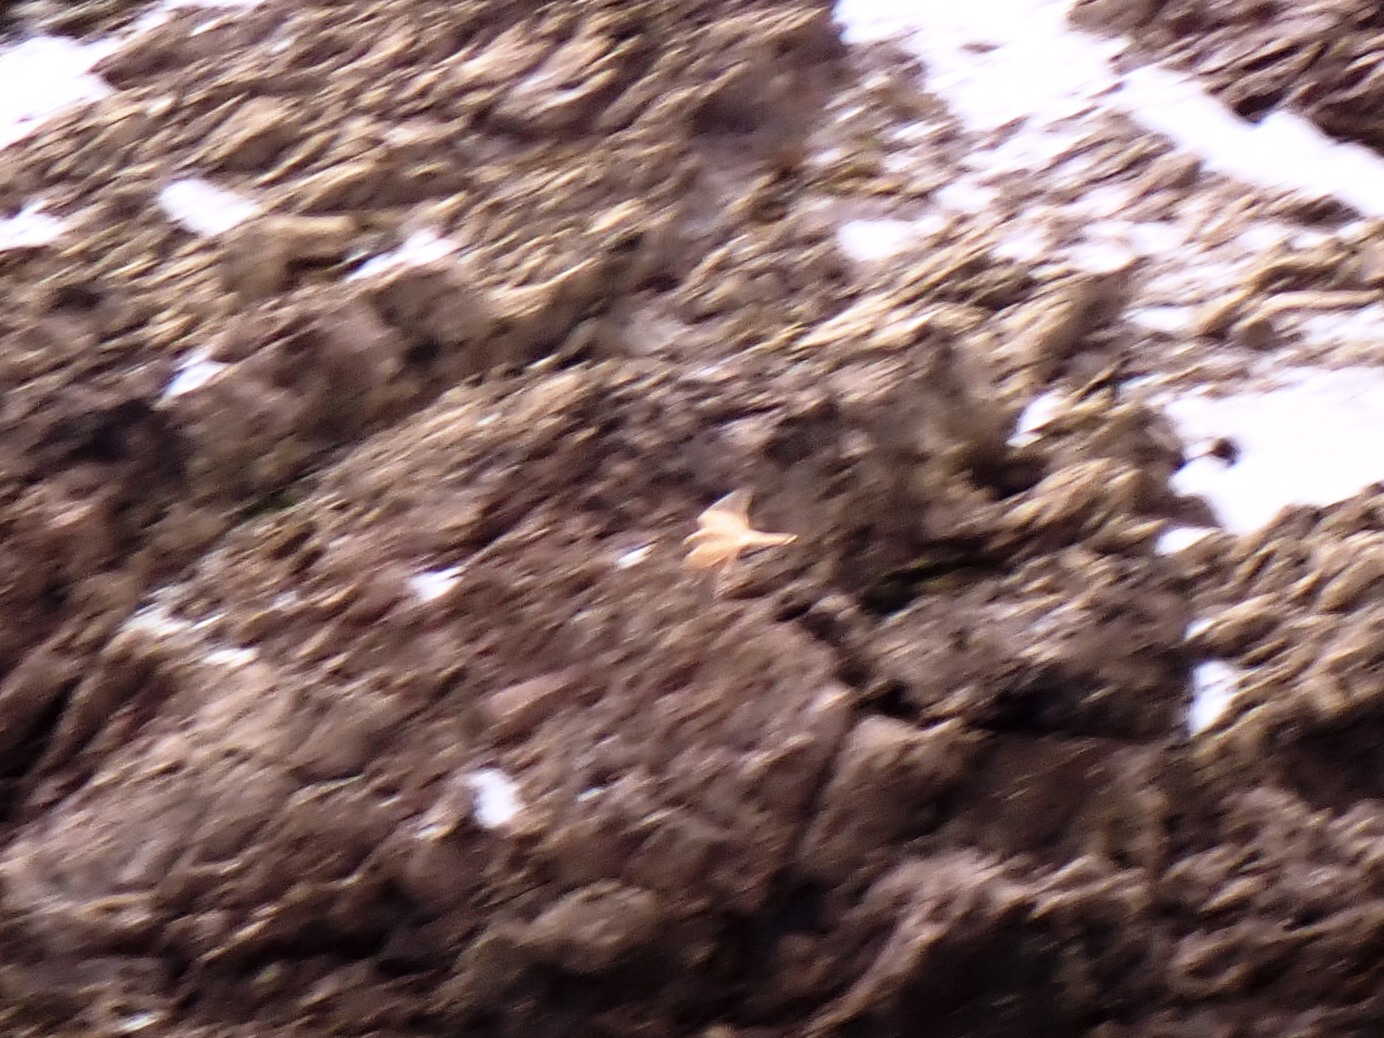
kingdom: Animalia
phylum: Chordata
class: Aves
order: Falconiformes
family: Falconidae
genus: Falco
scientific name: Falco tinnunculus
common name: Common kestrel
